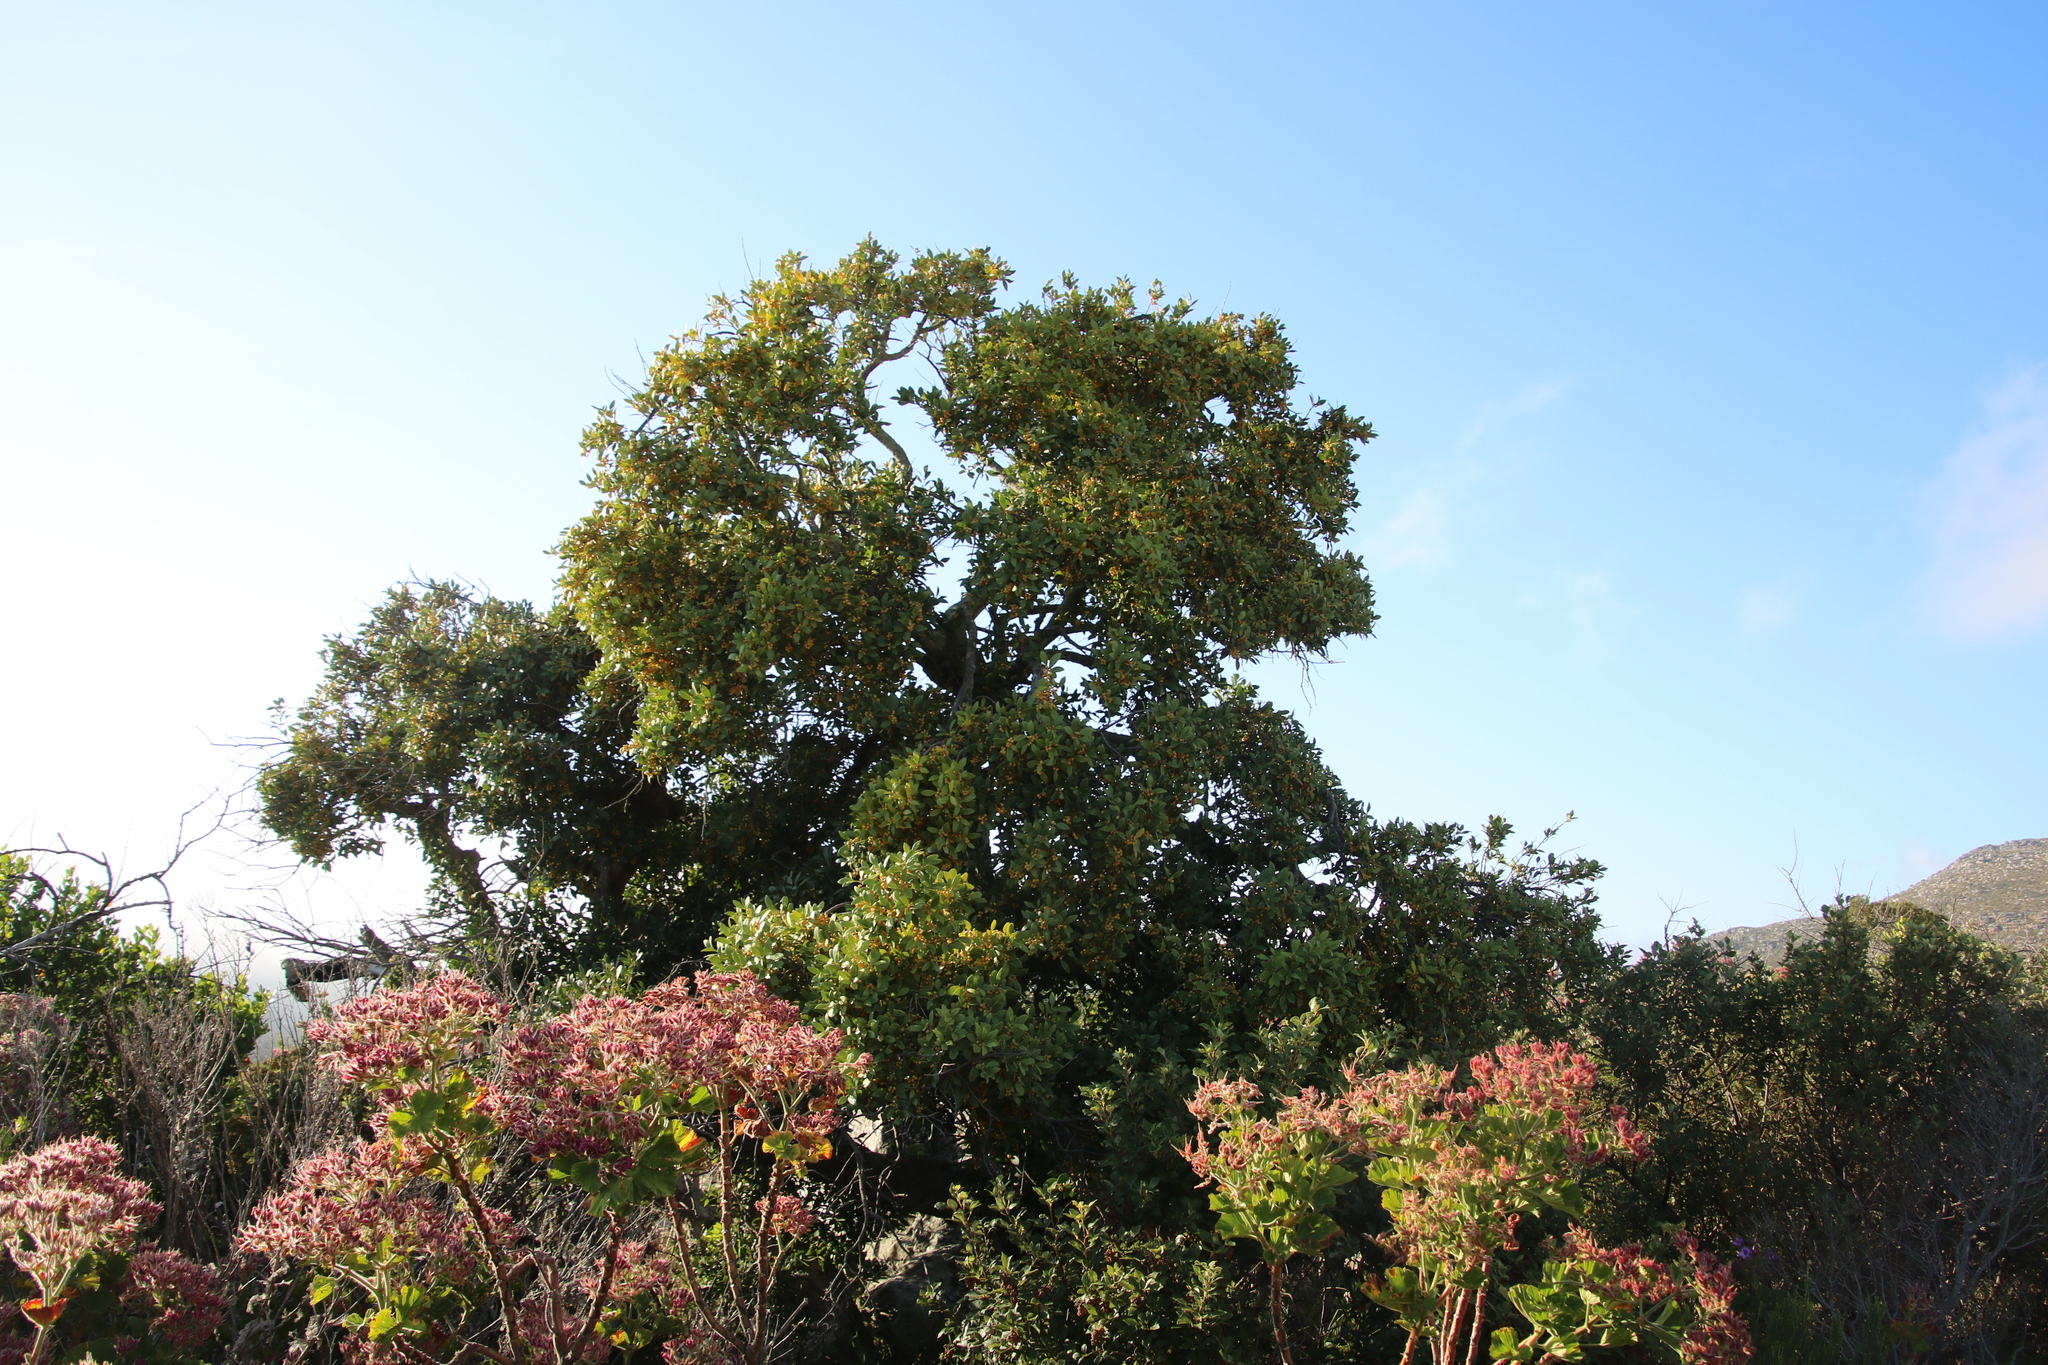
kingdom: Plantae
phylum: Tracheophyta
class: Magnoliopsida
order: Celastrales
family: Celastraceae
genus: Gymnosporia
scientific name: Gymnosporia laurina
